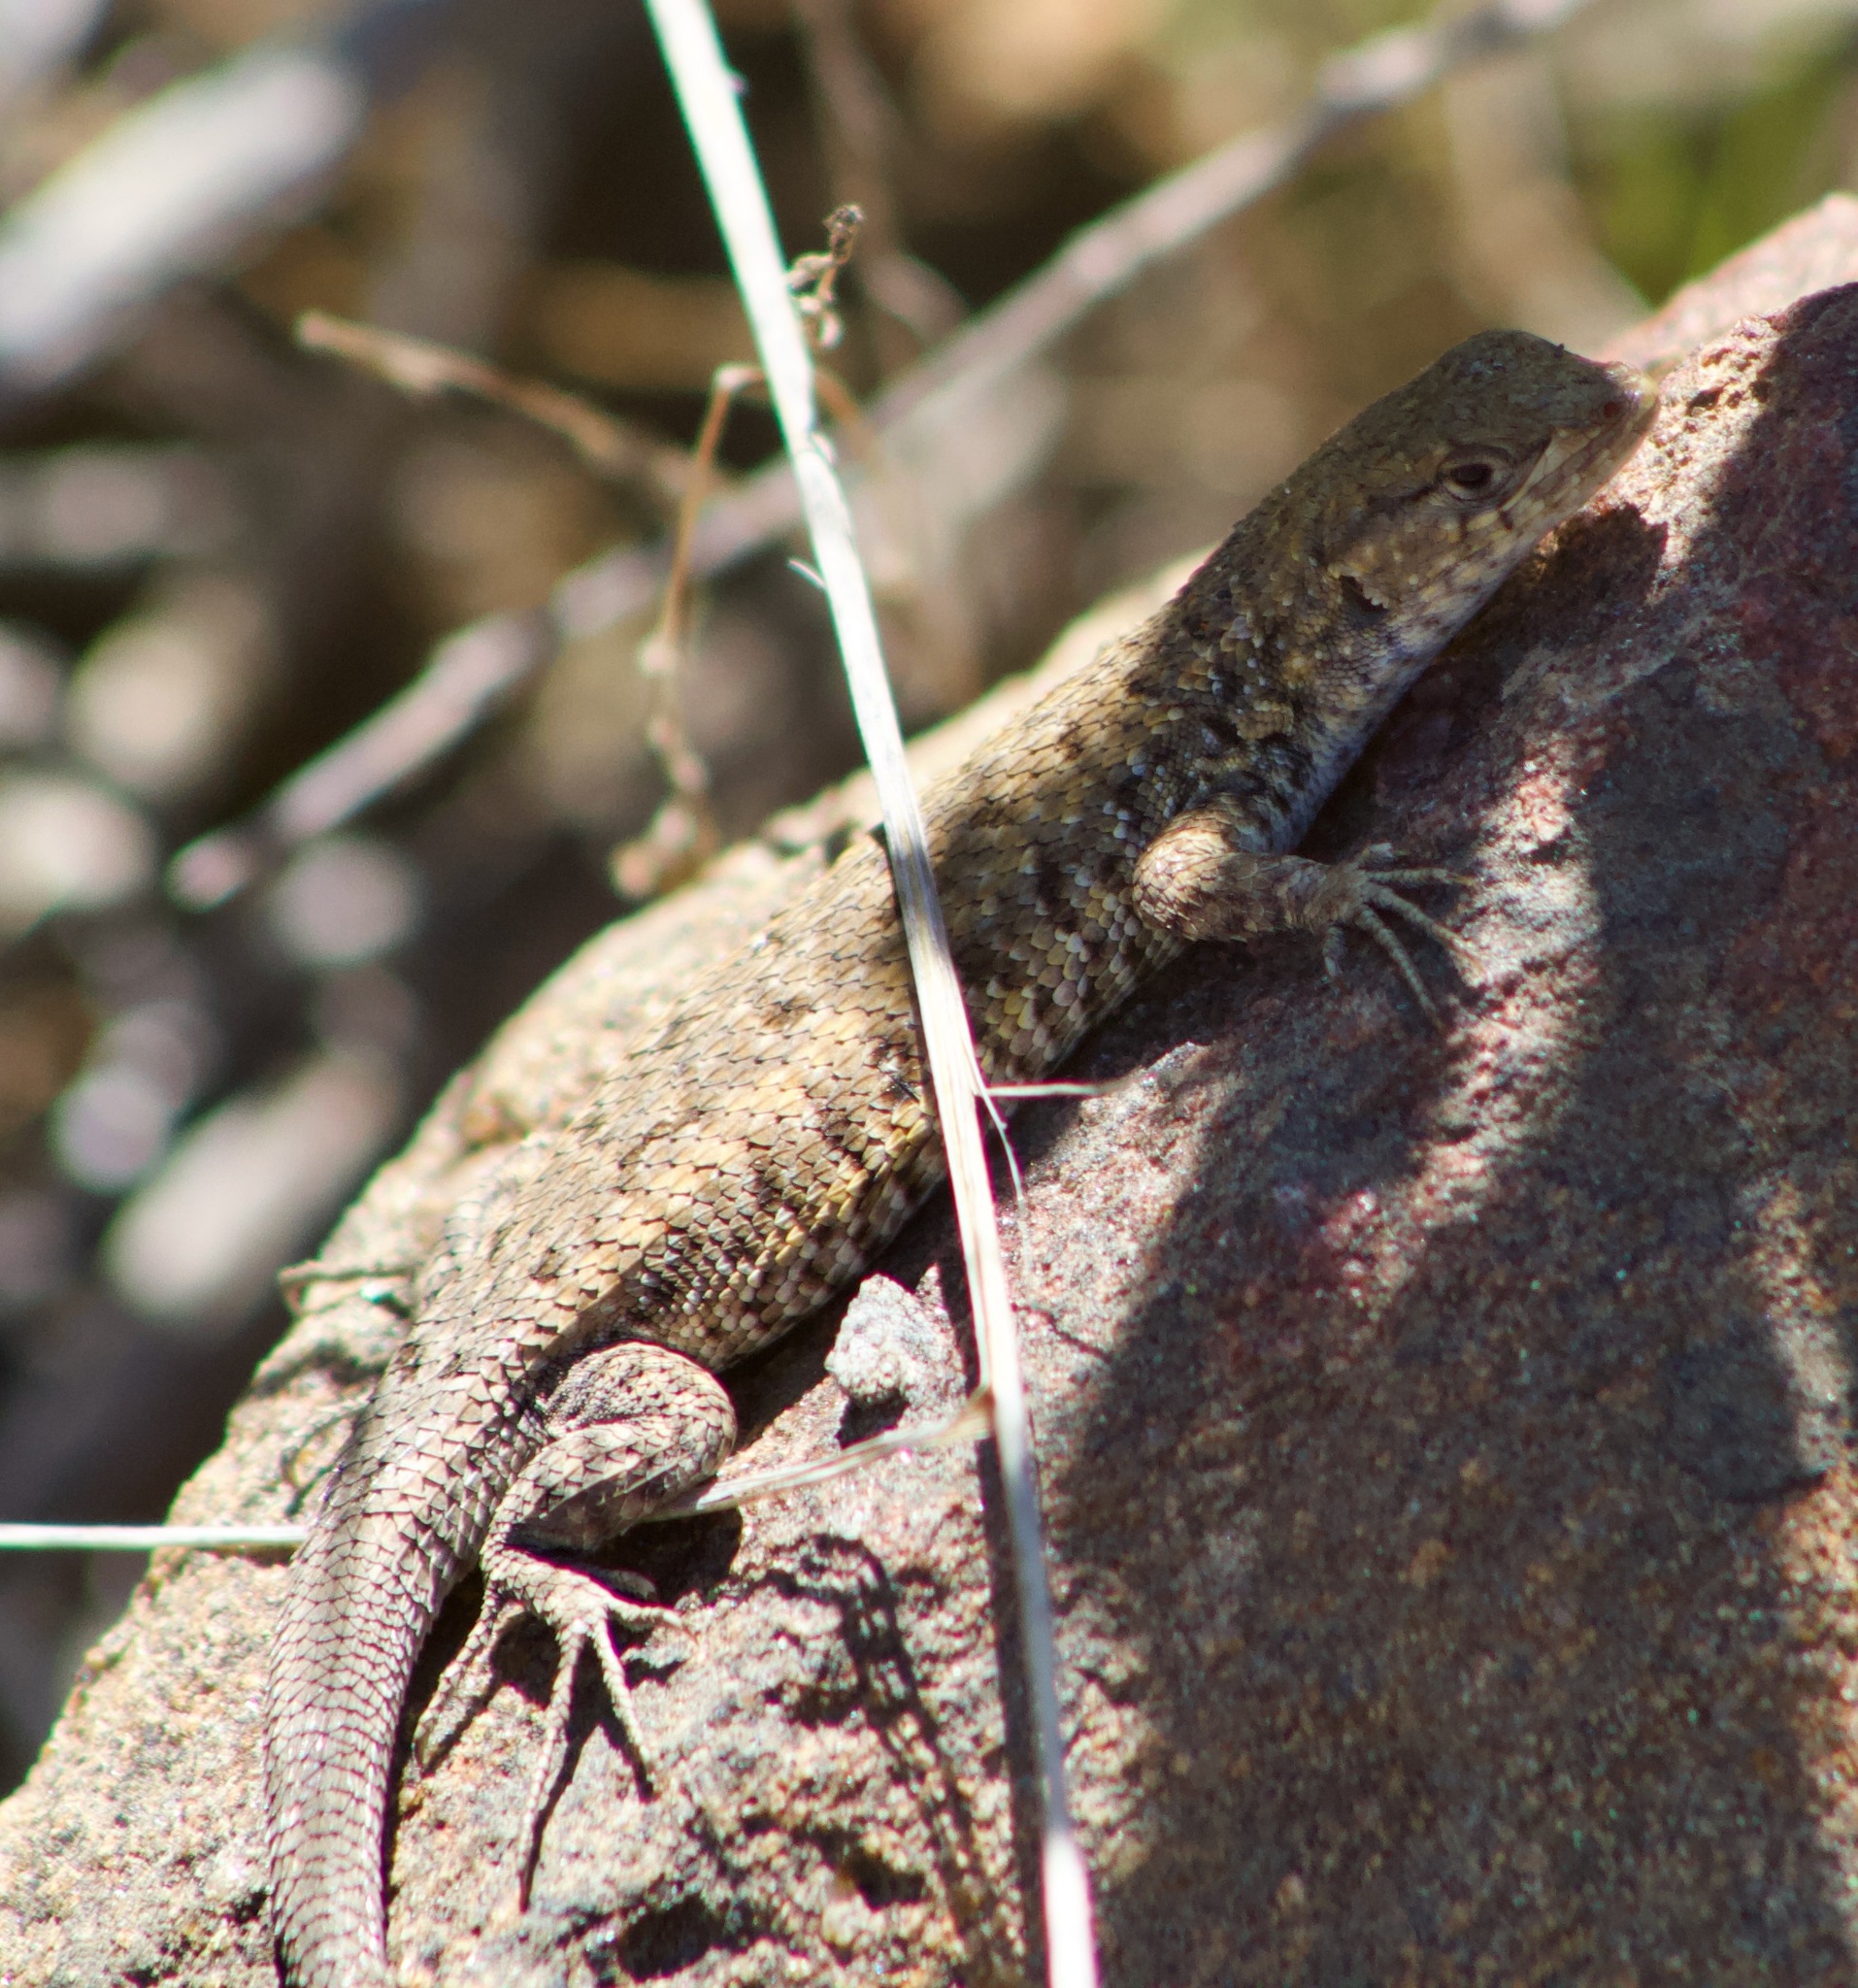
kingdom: Animalia
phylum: Chordata
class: Squamata
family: Liolaemidae
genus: Liolaemus
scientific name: Liolaemus platei
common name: Braided tree iguana
